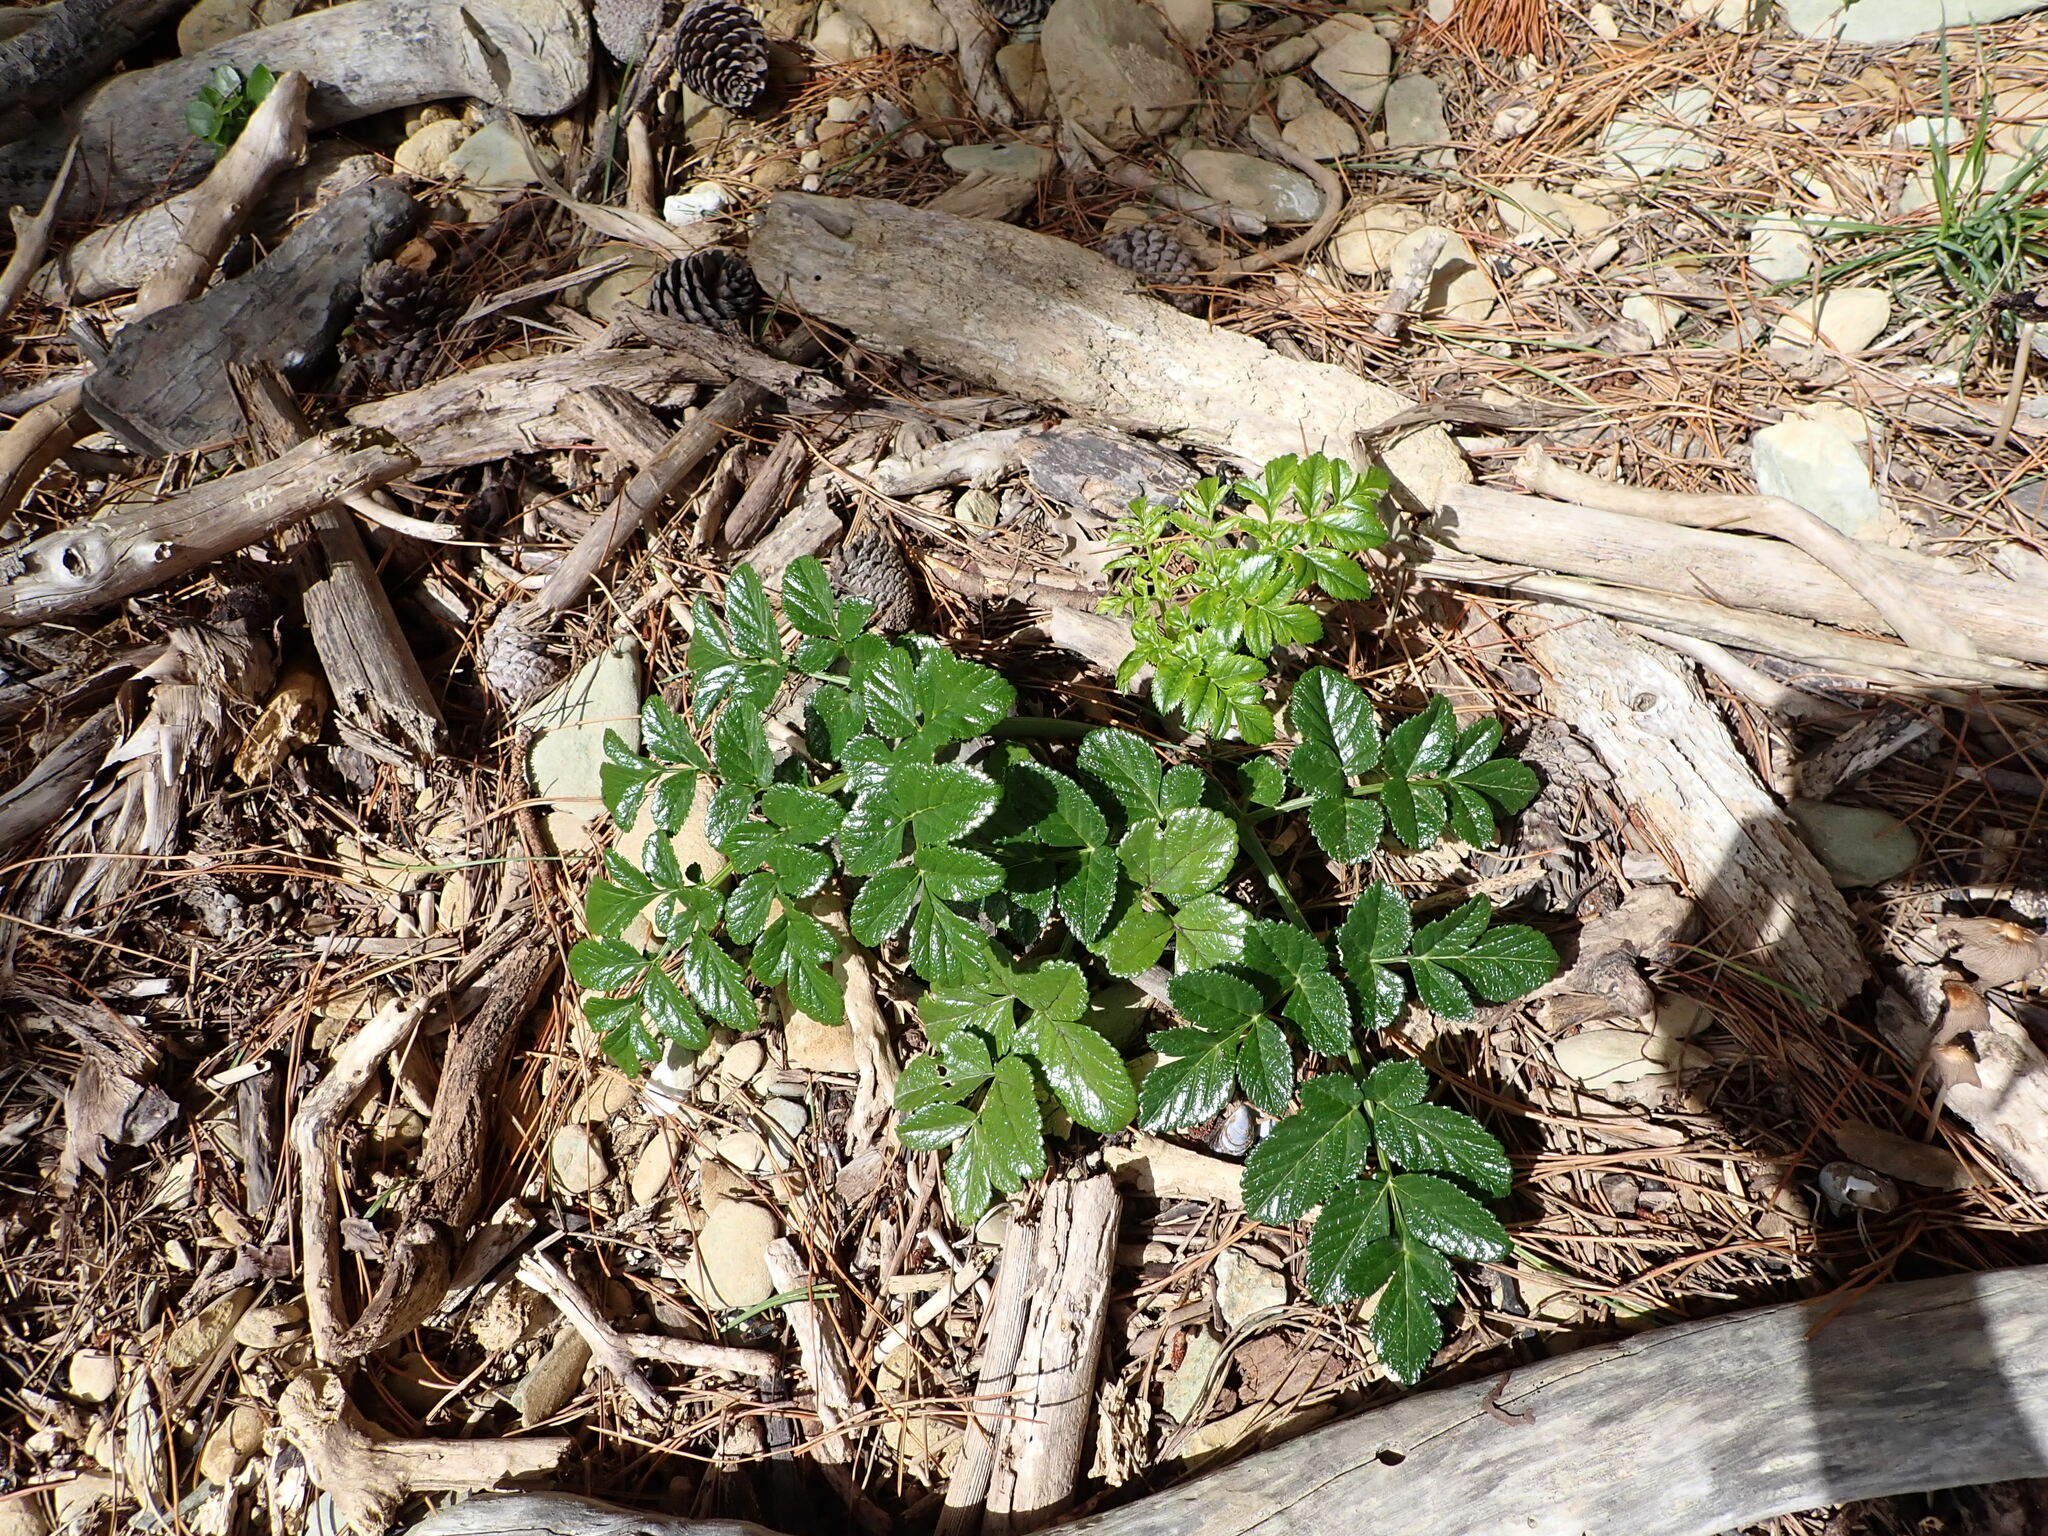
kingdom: Plantae
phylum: Tracheophyta
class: Magnoliopsida
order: Apiales
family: Apiaceae
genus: Angelica
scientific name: Angelica pachycarpa
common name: Portuguese angelica
